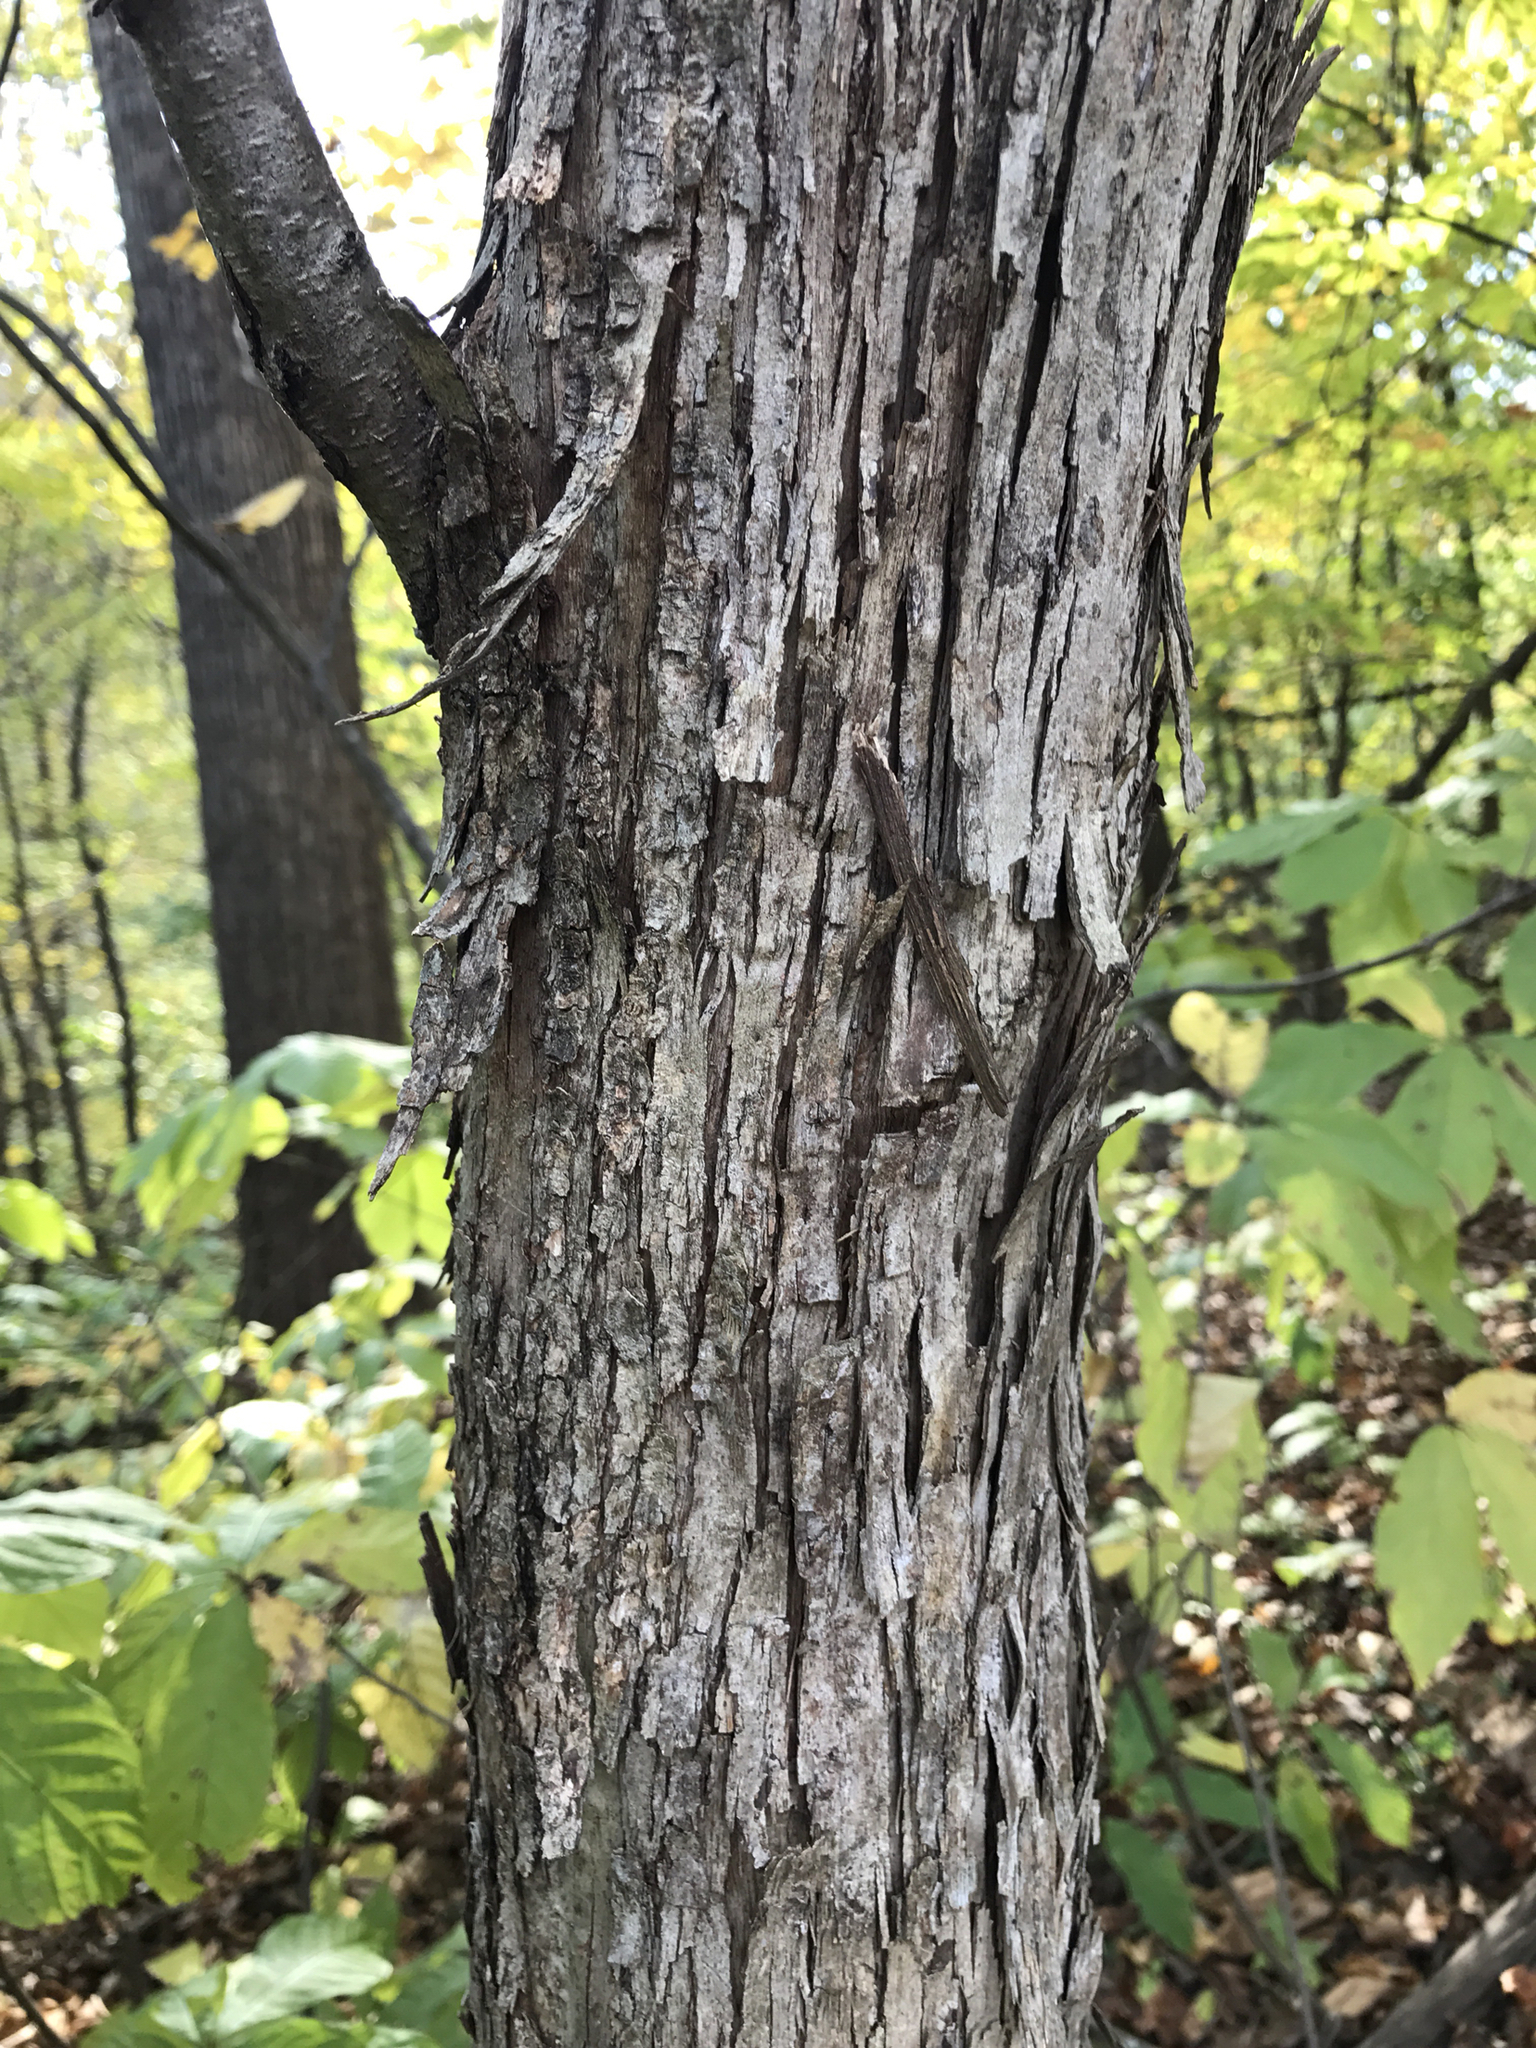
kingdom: Plantae
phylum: Tracheophyta
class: Magnoliopsida
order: Fagales
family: Betulaceae
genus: Ostrya
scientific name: Ostrya virginiana
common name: Ironwood
